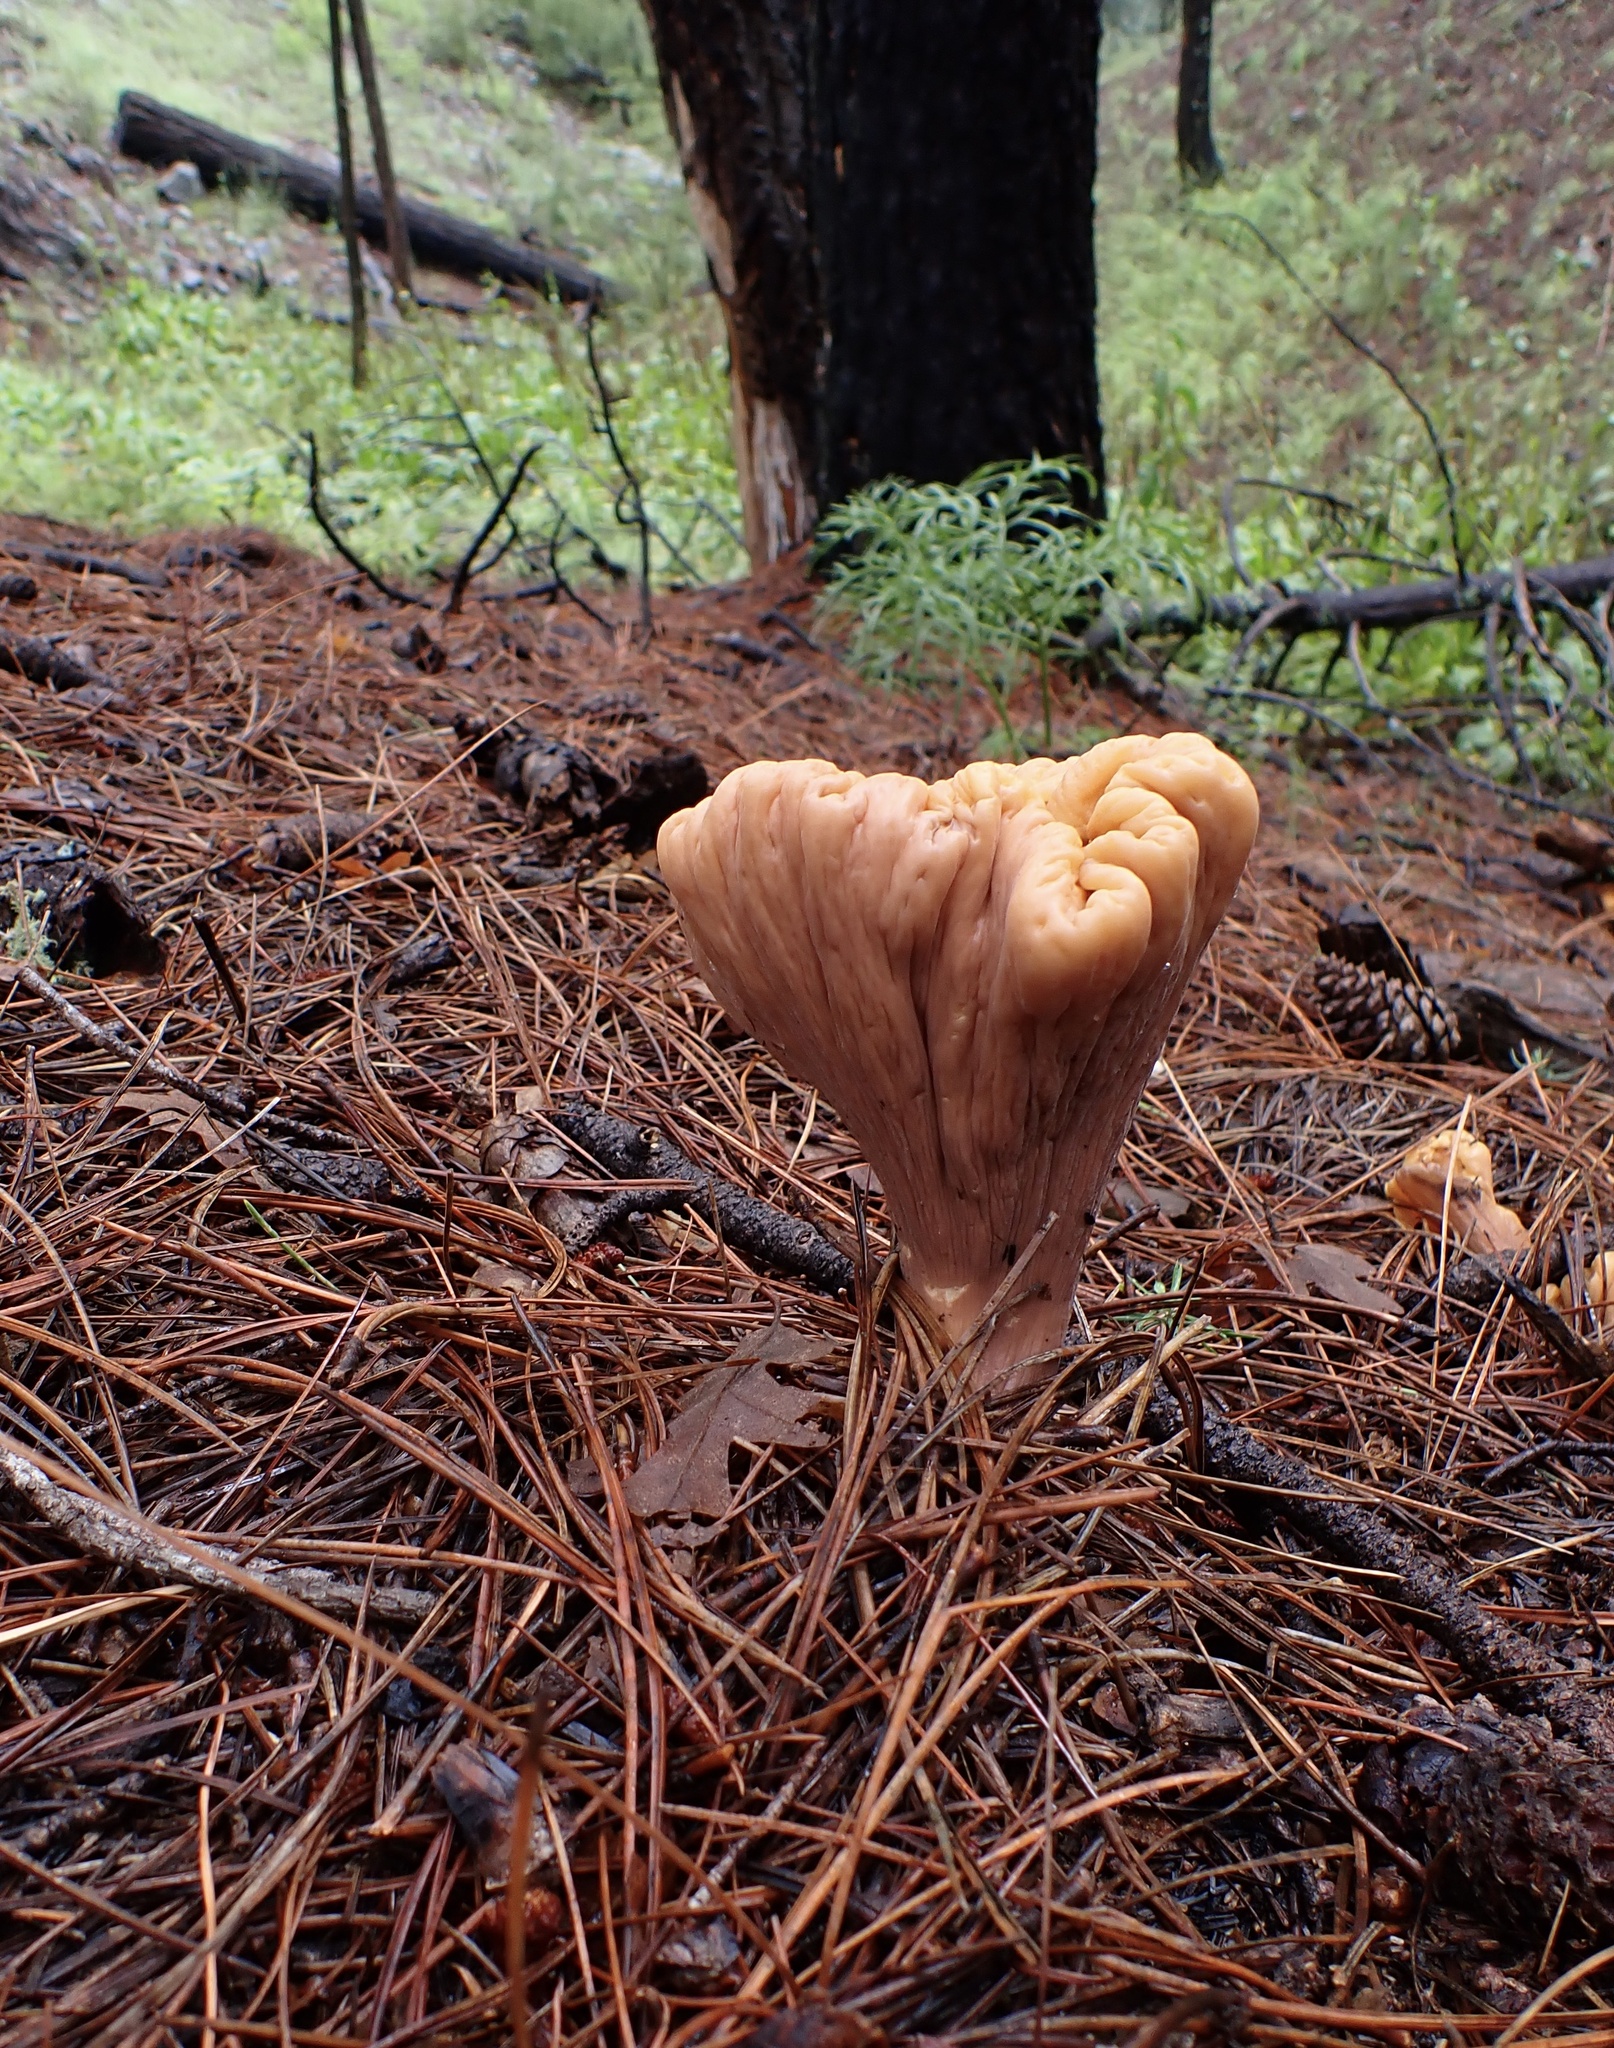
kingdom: Fungi
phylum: Basidiomycota
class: Agaricomycetes
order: Gomphales
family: Clavariadelphaceae
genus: Clavariadelphus
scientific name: Clavariadelphus truncatus
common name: Truncated club
